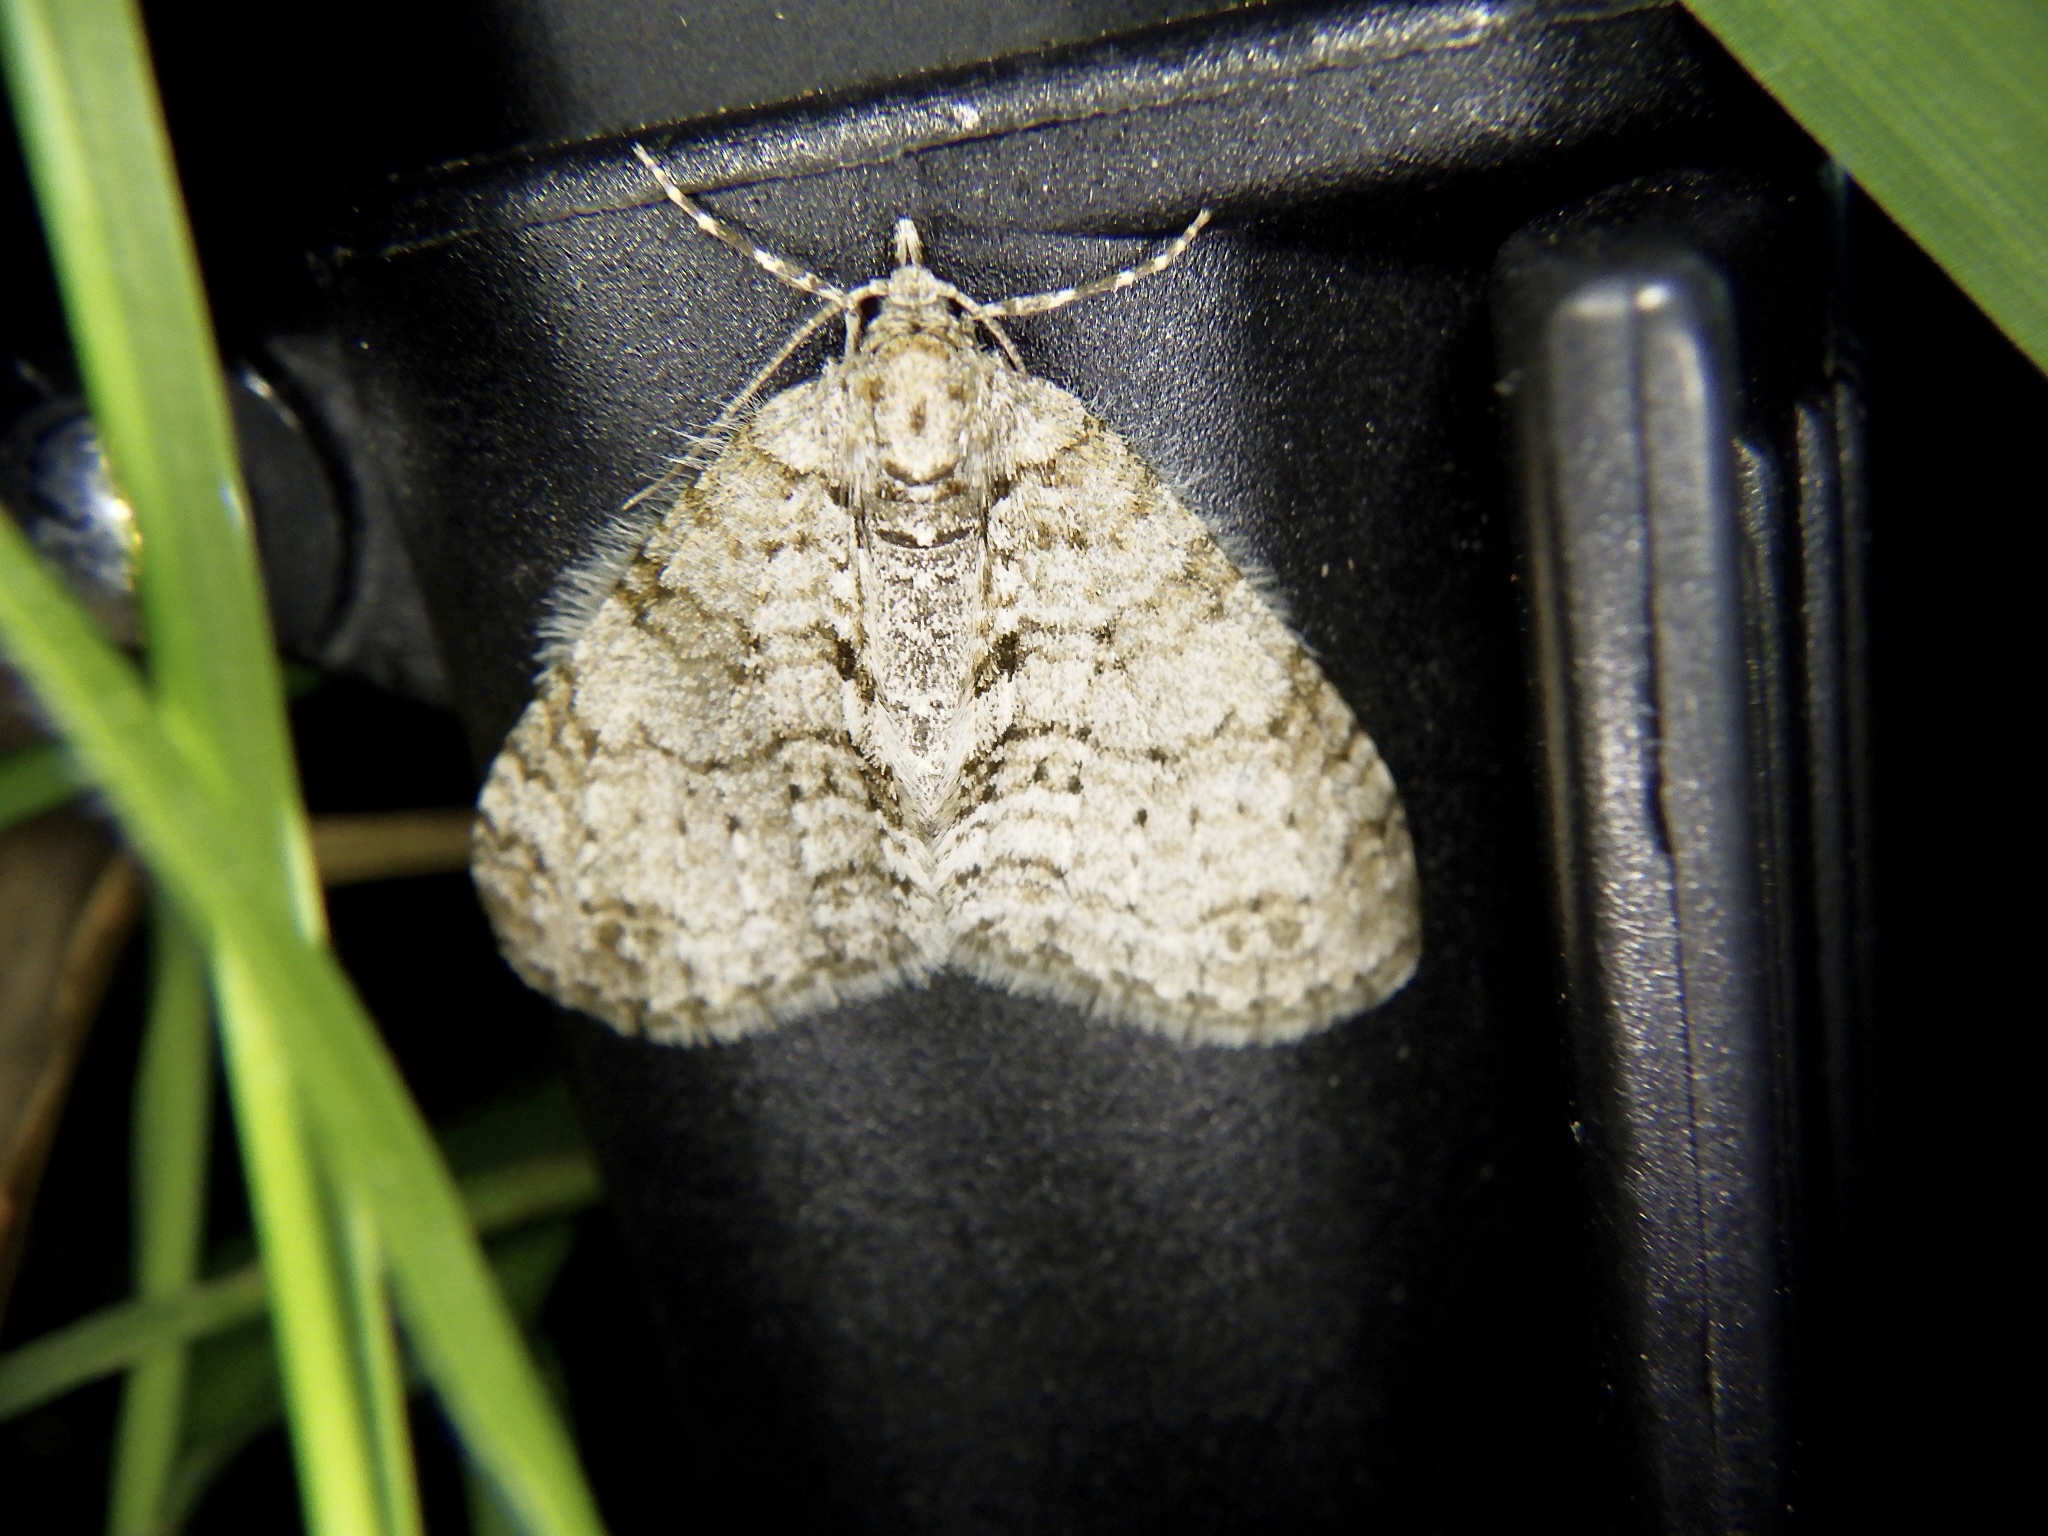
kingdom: Animalia
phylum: Arthropoda
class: Insecta
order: Lepidoptera
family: Geometridae
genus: Trichopterigia
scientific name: Trichopterigia consobrinaria
